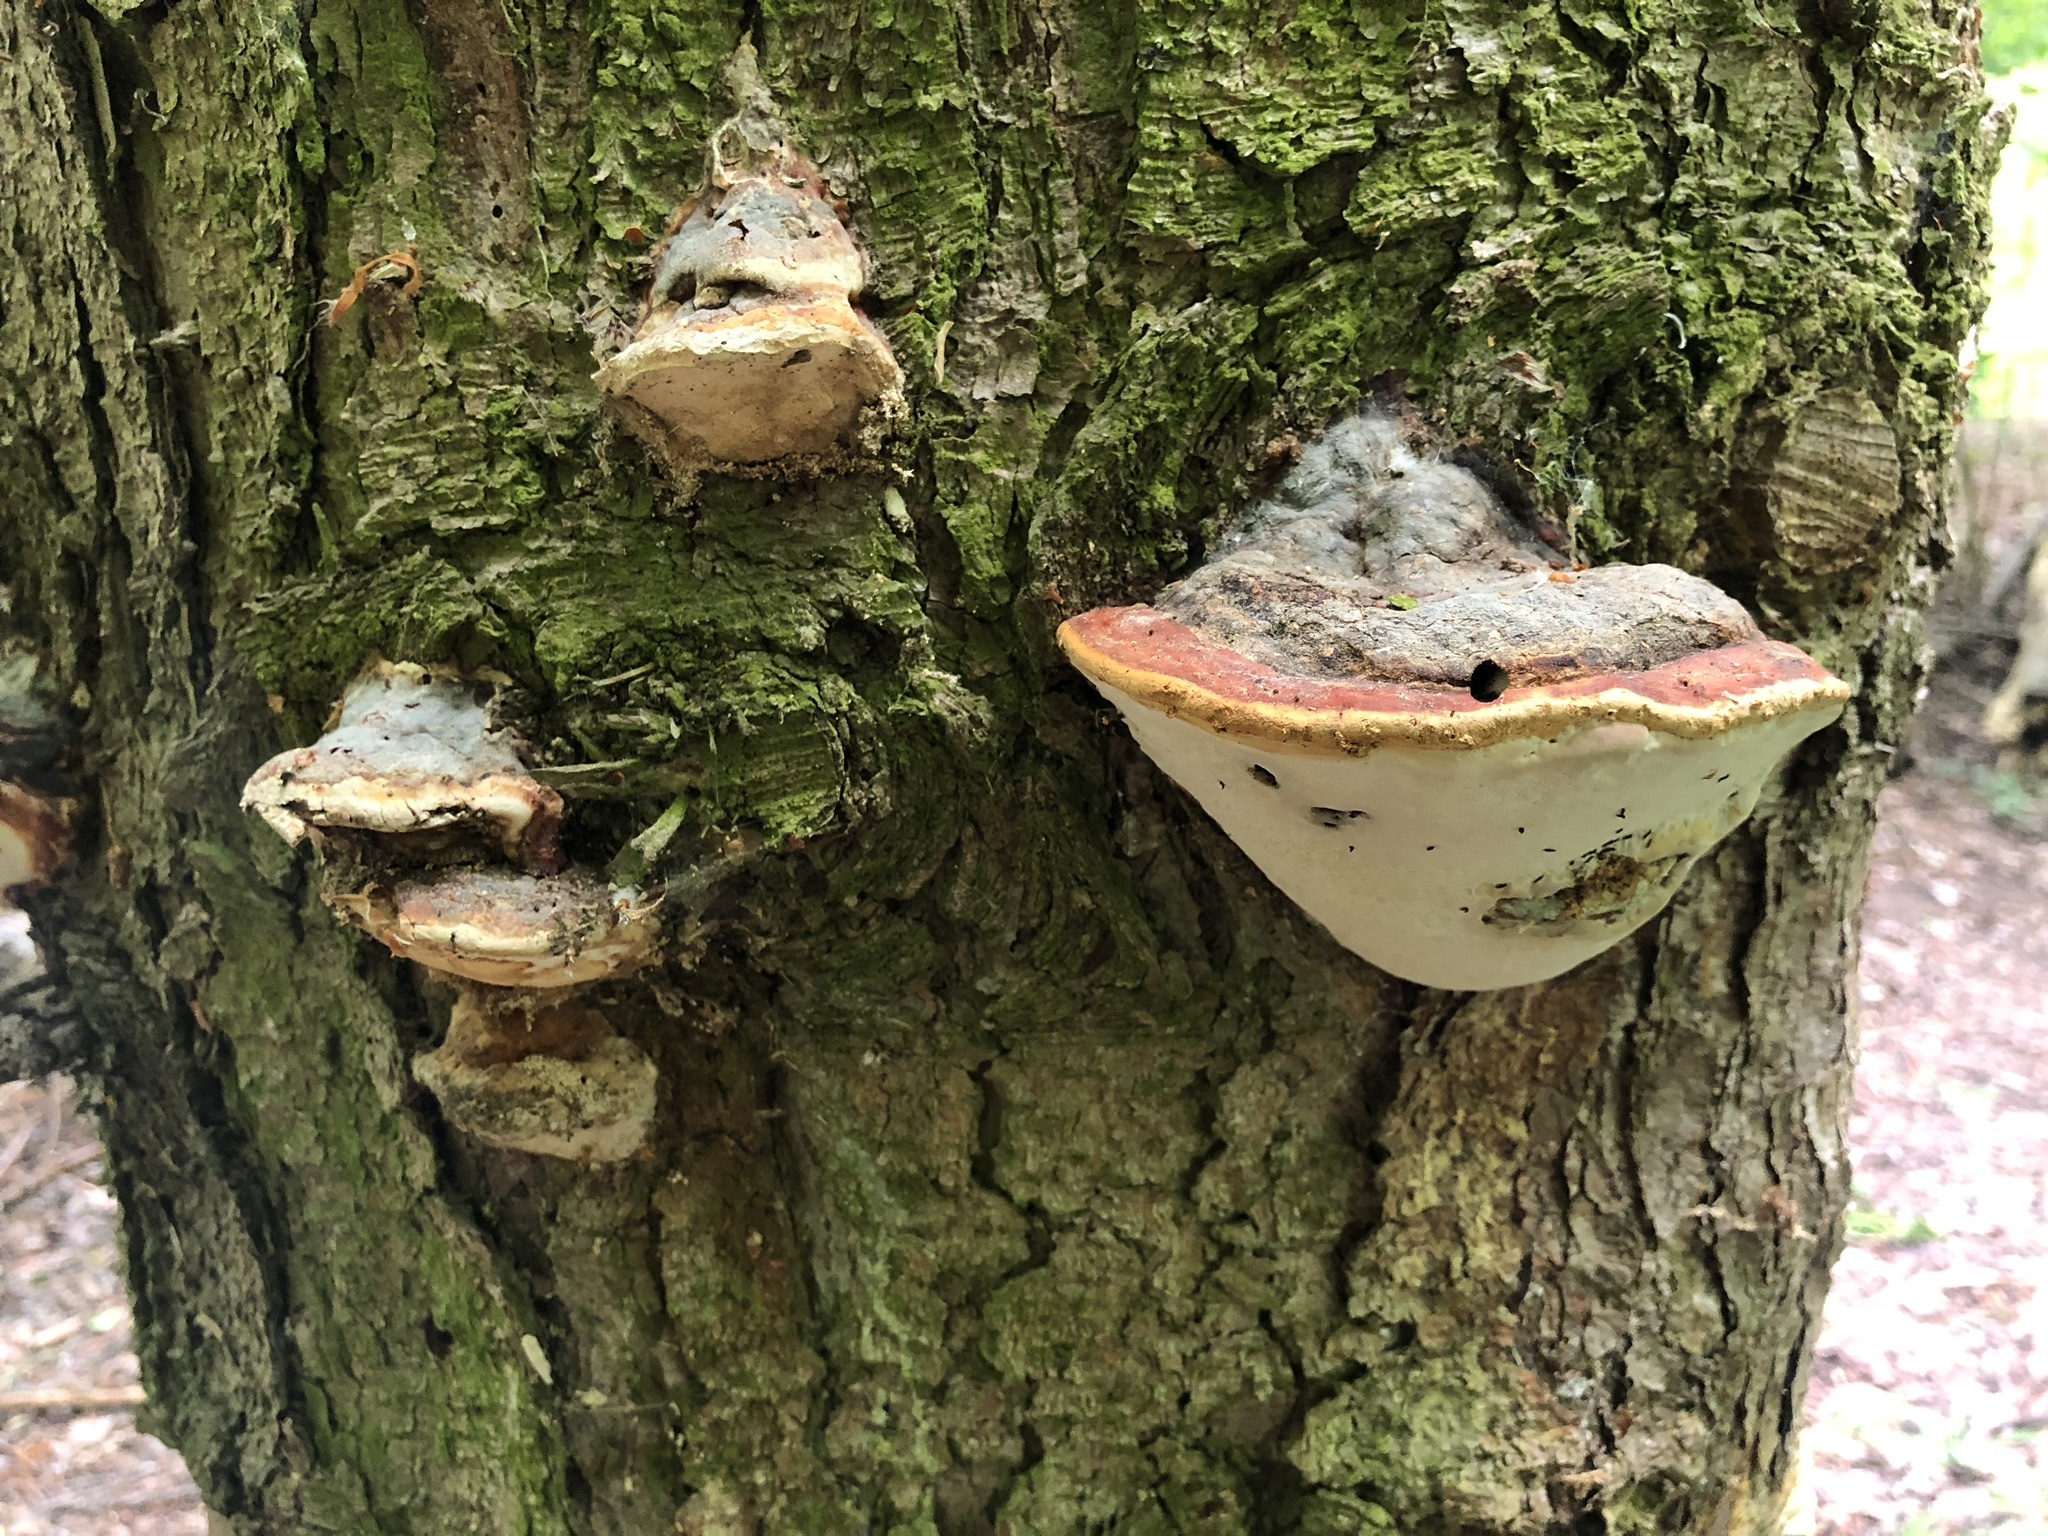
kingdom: Fungi
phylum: Basidiomycota
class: Agaricomycetes
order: Polyporales
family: Fomitopsidaceae
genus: Fomitopsis
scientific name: Fomitopsis pinicola
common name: Red-belted bracket
